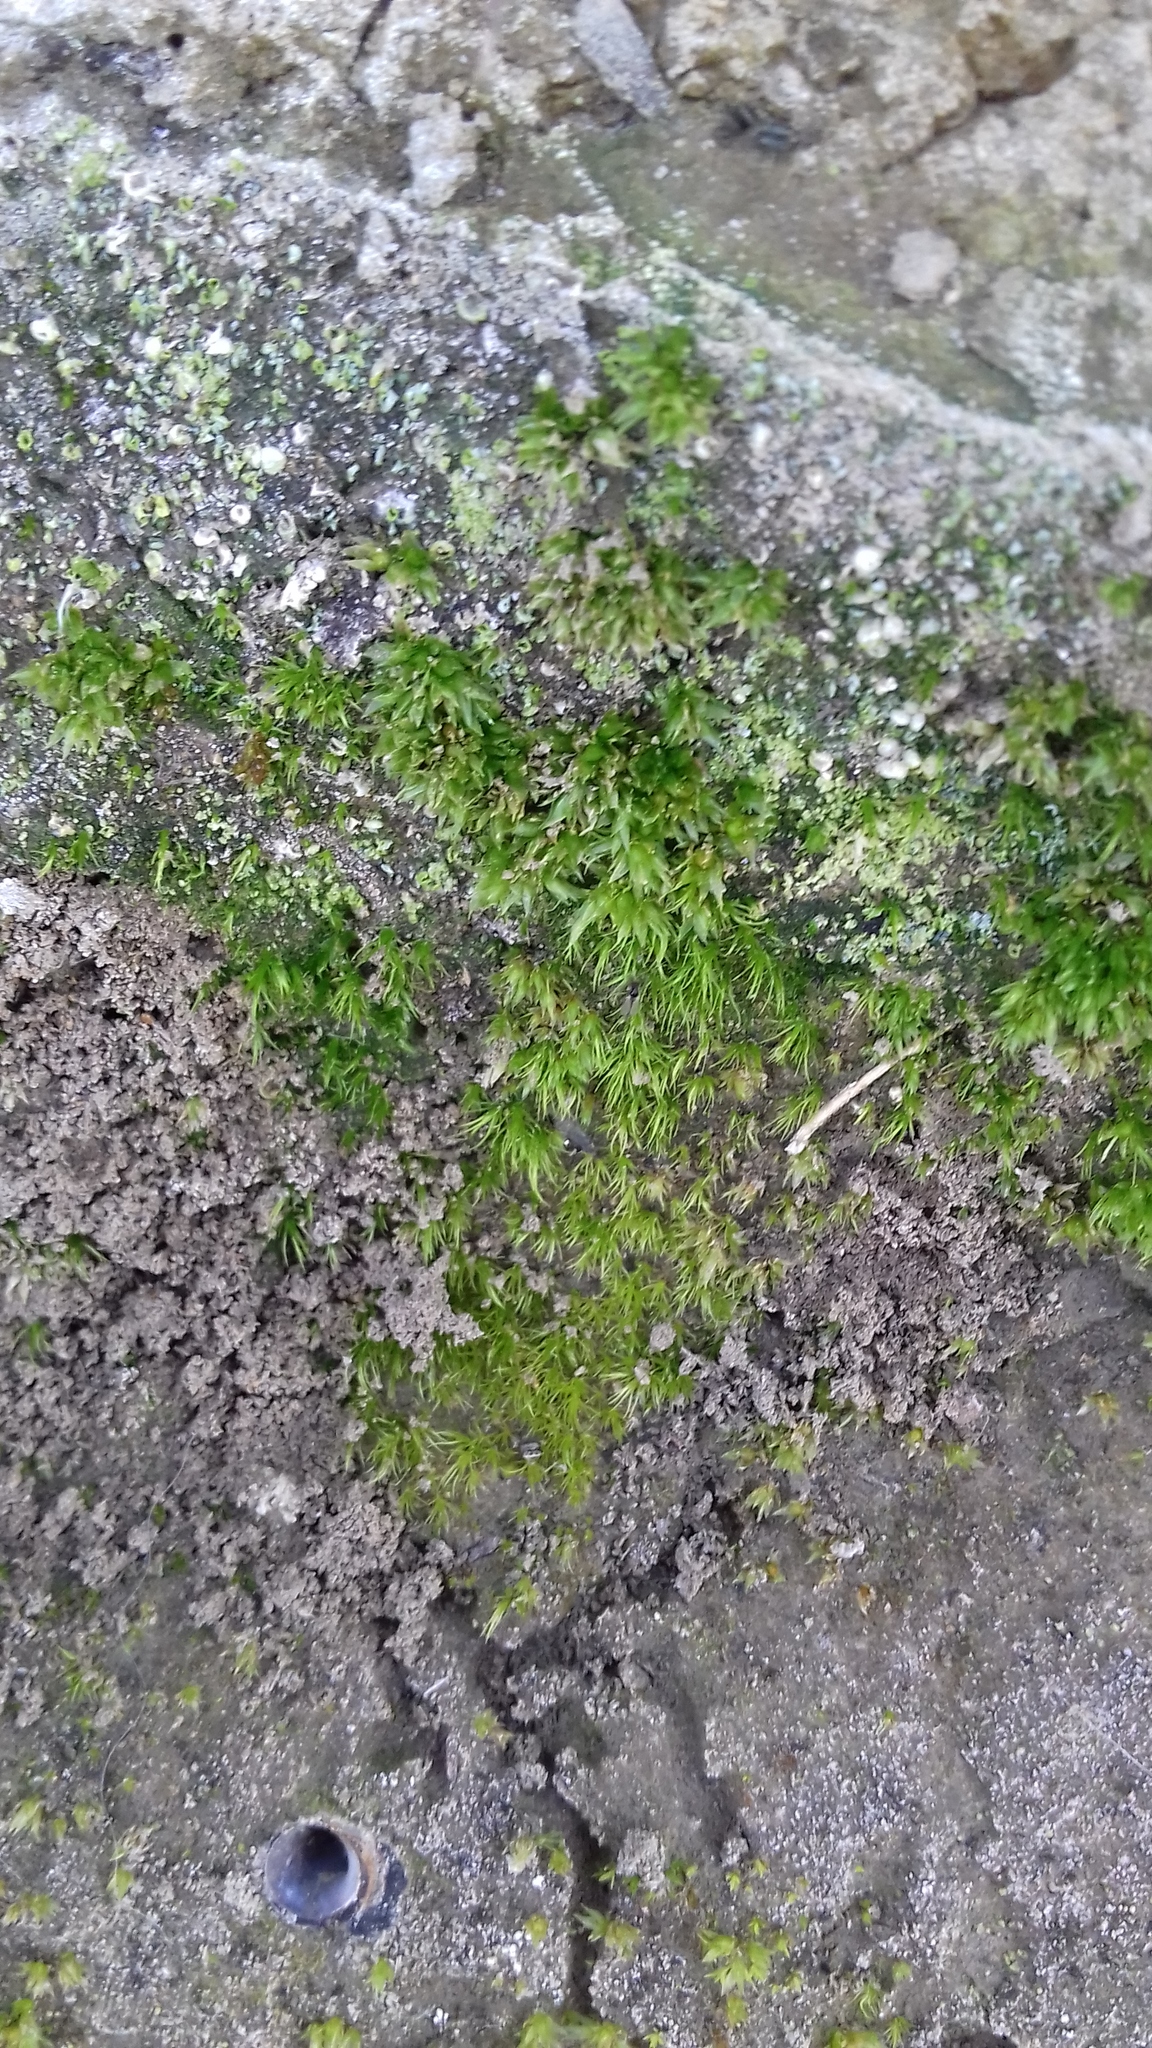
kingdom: Plantae
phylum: Bryophyta
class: Bryopsida
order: Pottiales
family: Pottiaceae
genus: Tortula
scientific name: Tortula acaulon
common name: Cuspidate earth moss
